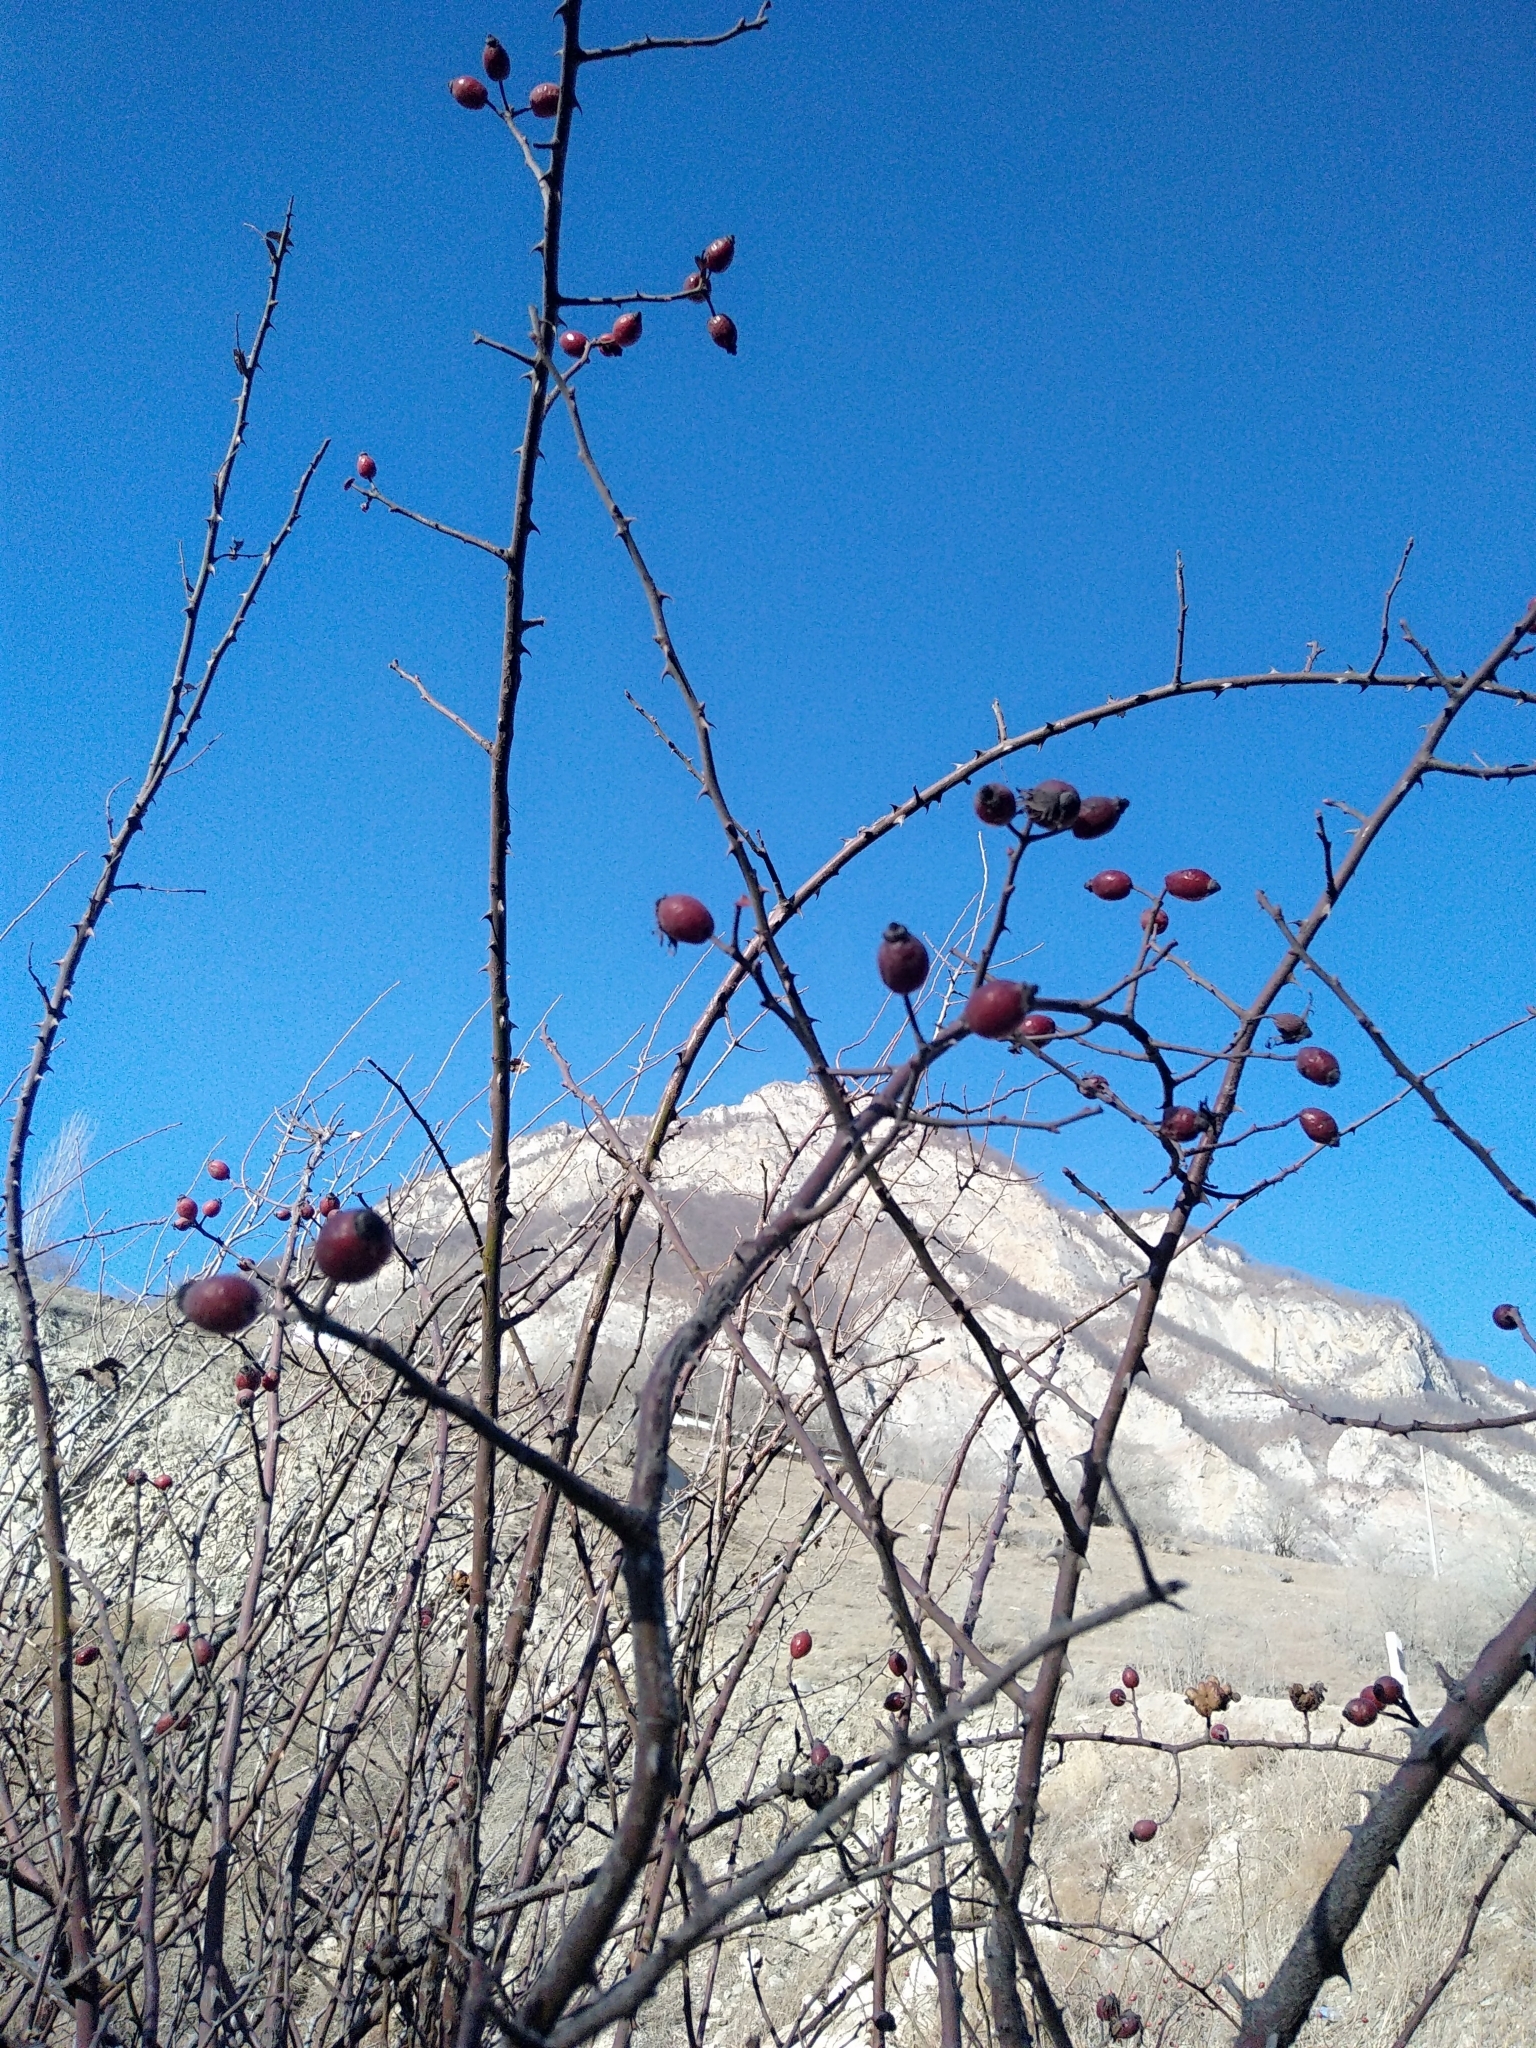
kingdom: Plantae
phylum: Tracheophyta
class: Magnoliopsida
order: Rosales
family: Rosaceae
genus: Rosa
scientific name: Rosa
